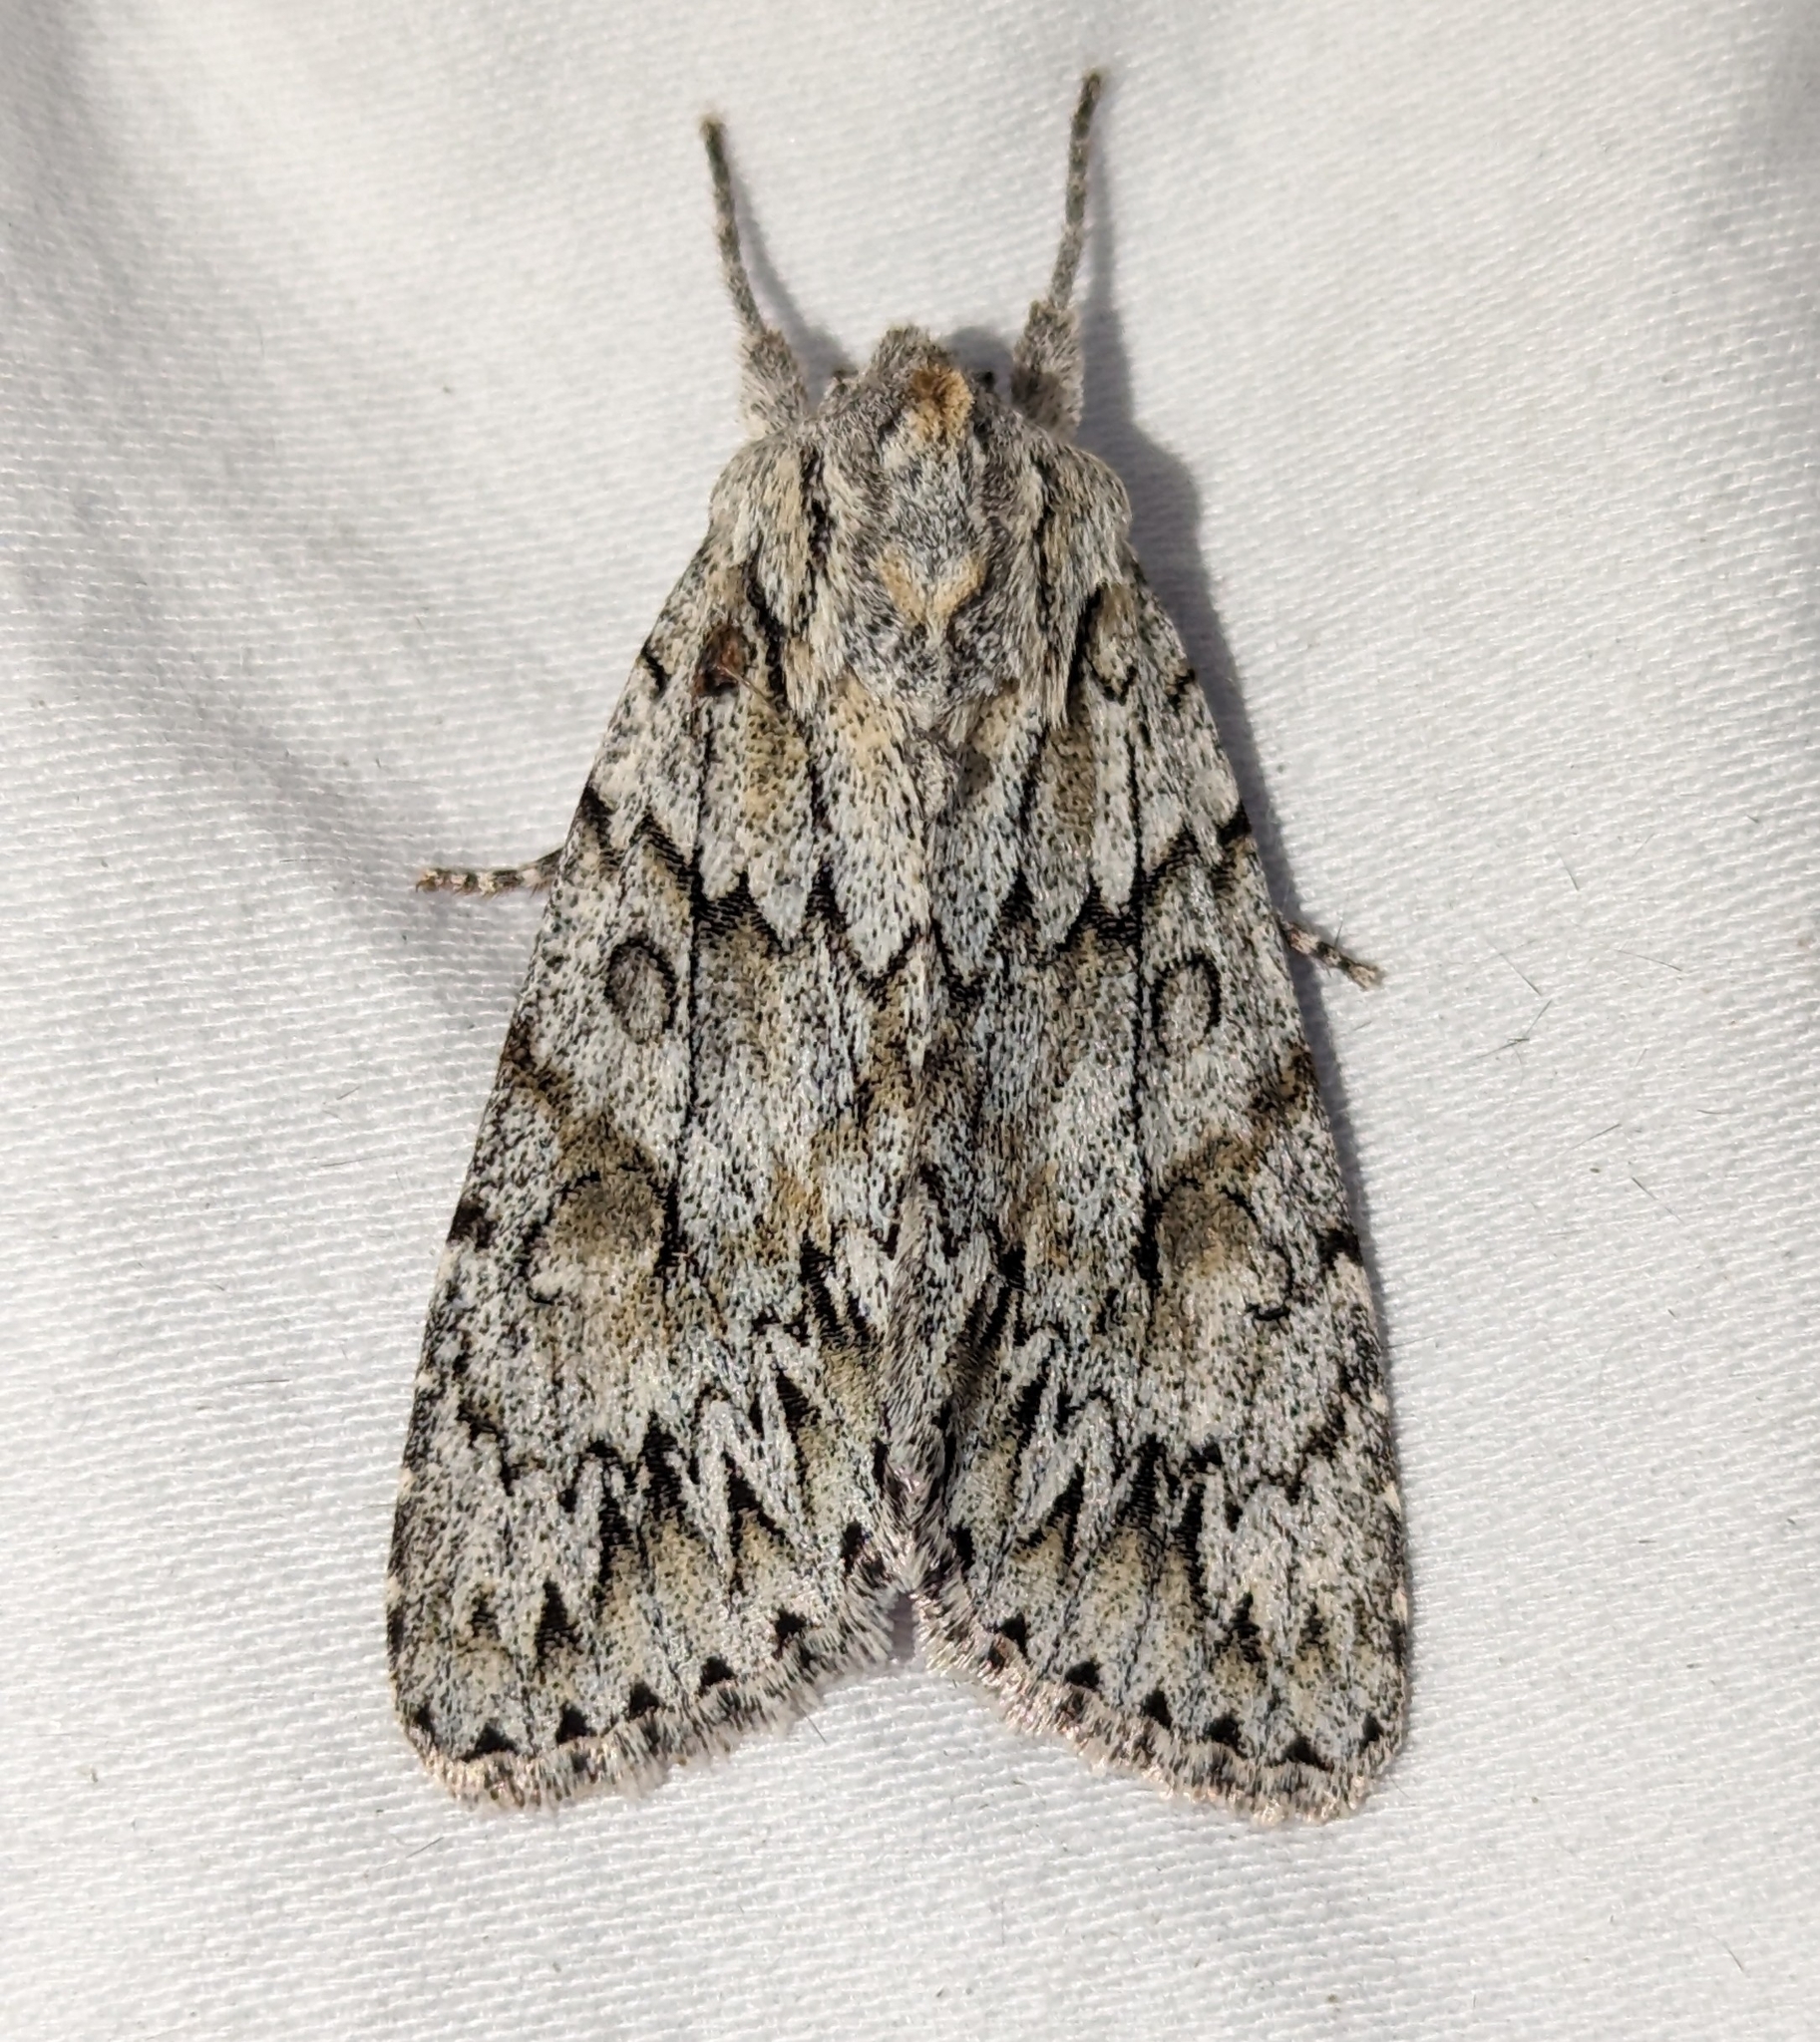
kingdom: Animalia
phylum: Arthropoda
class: Insecta
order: Lepidoptera
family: Noctuidae
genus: Andropolia
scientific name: Andropolia aedon
